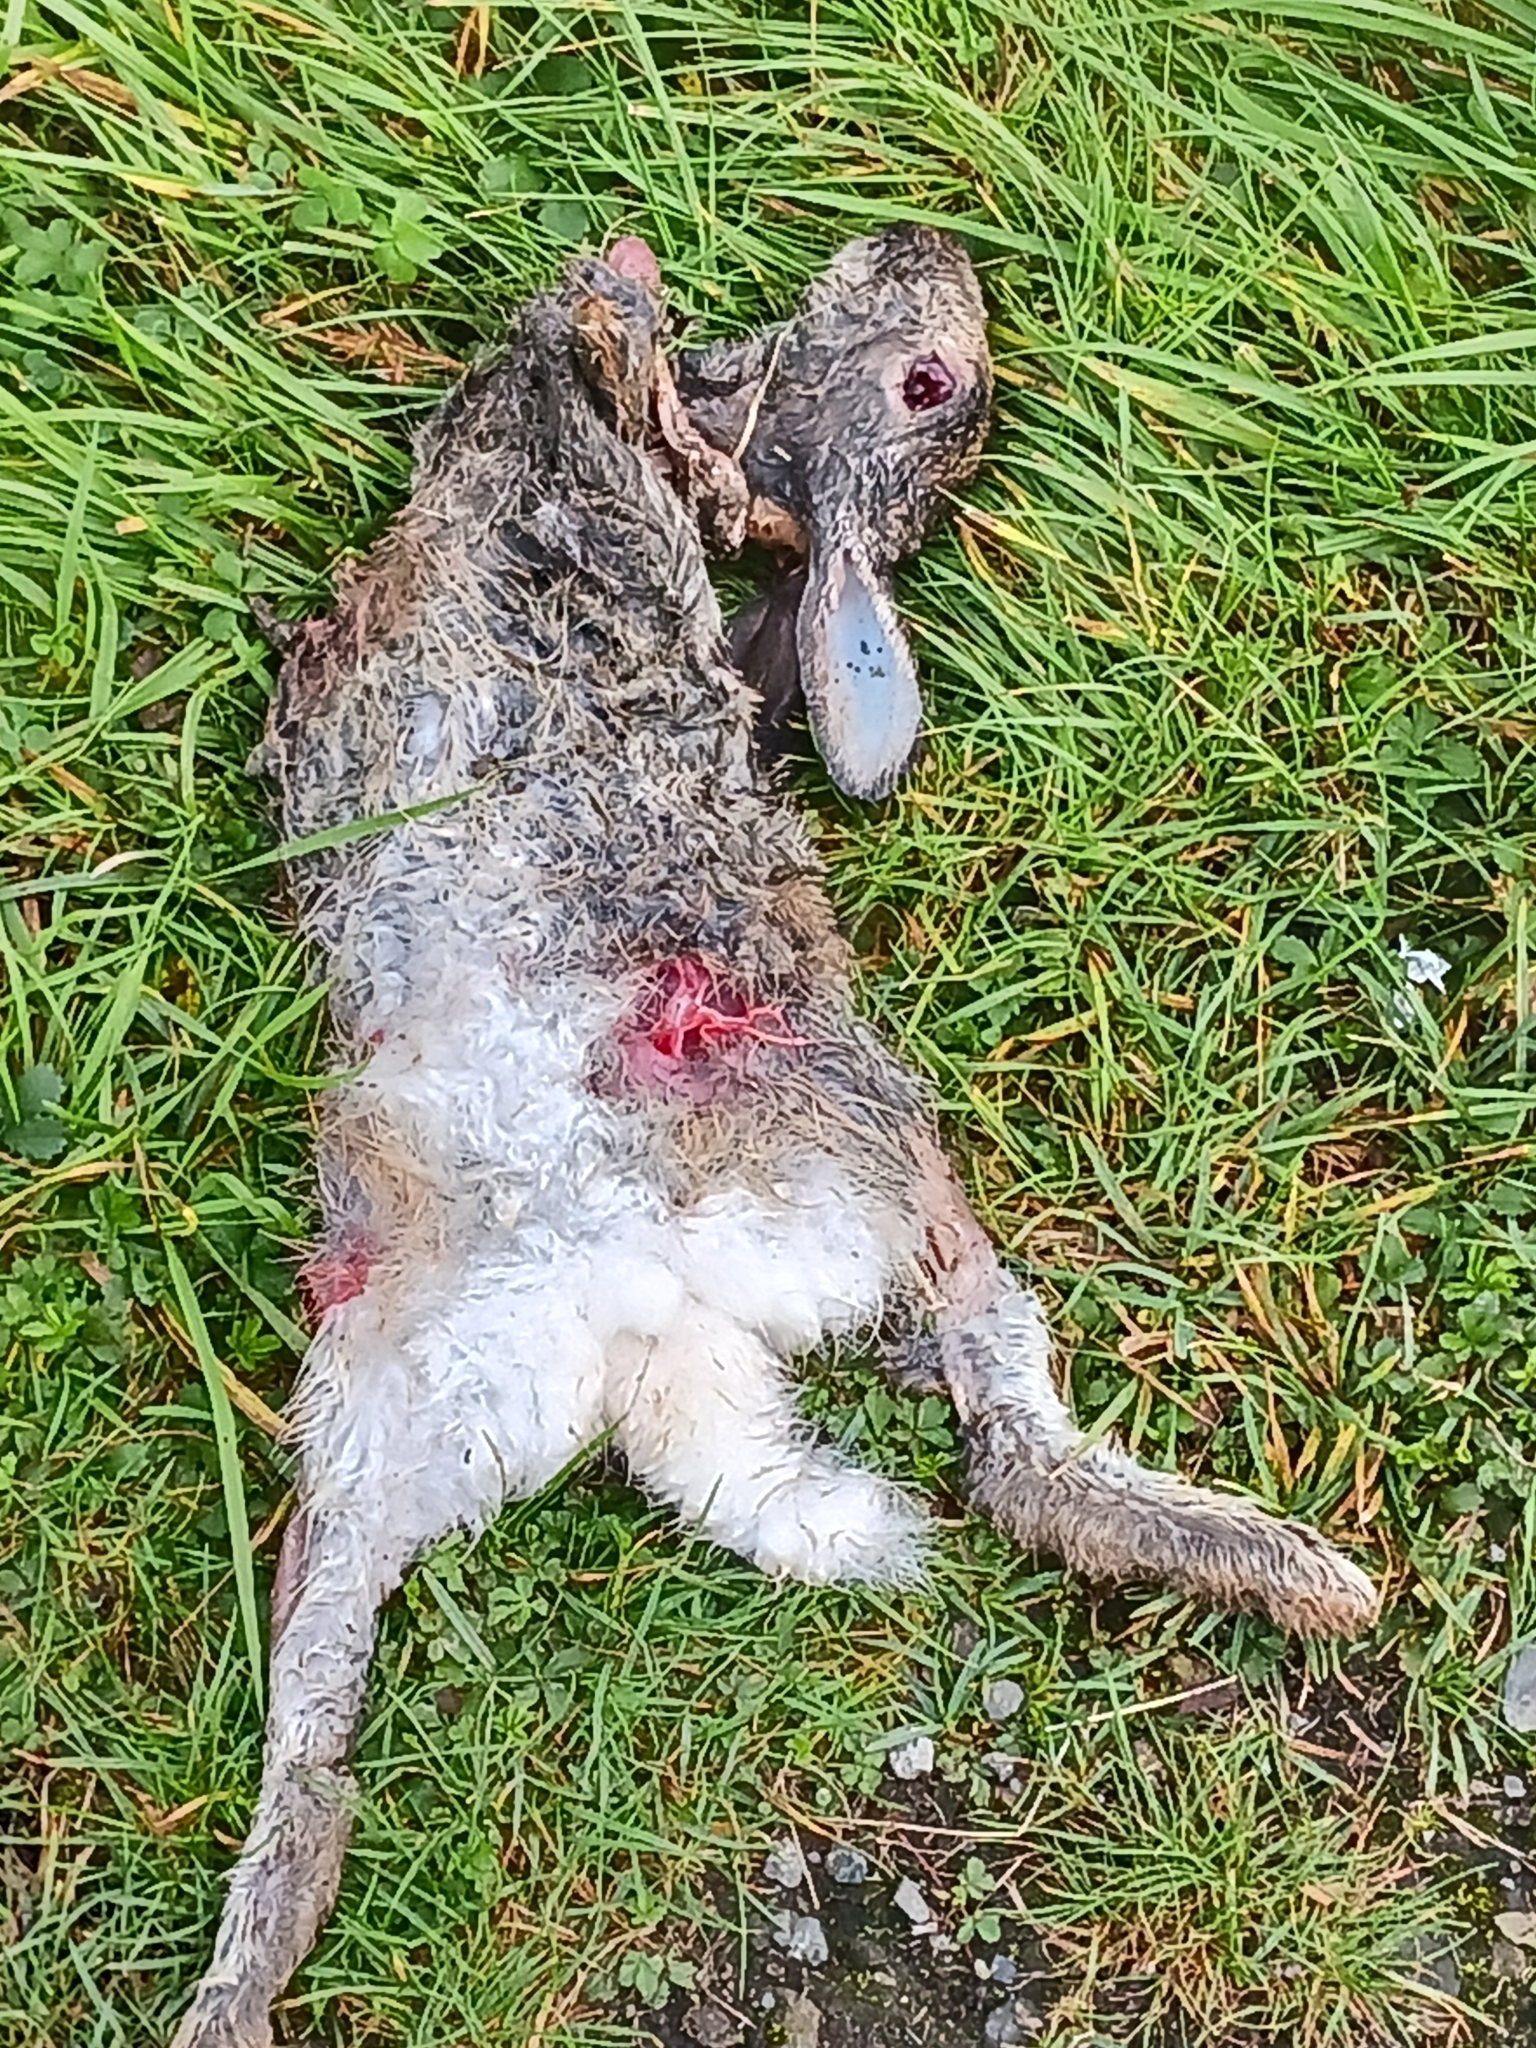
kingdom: Animalia
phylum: Chordata
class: Mammalia
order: Lagomorpha
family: Leporidae
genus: Oryctolagus
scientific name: Oryctolagus cuniculus
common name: European rabbit
